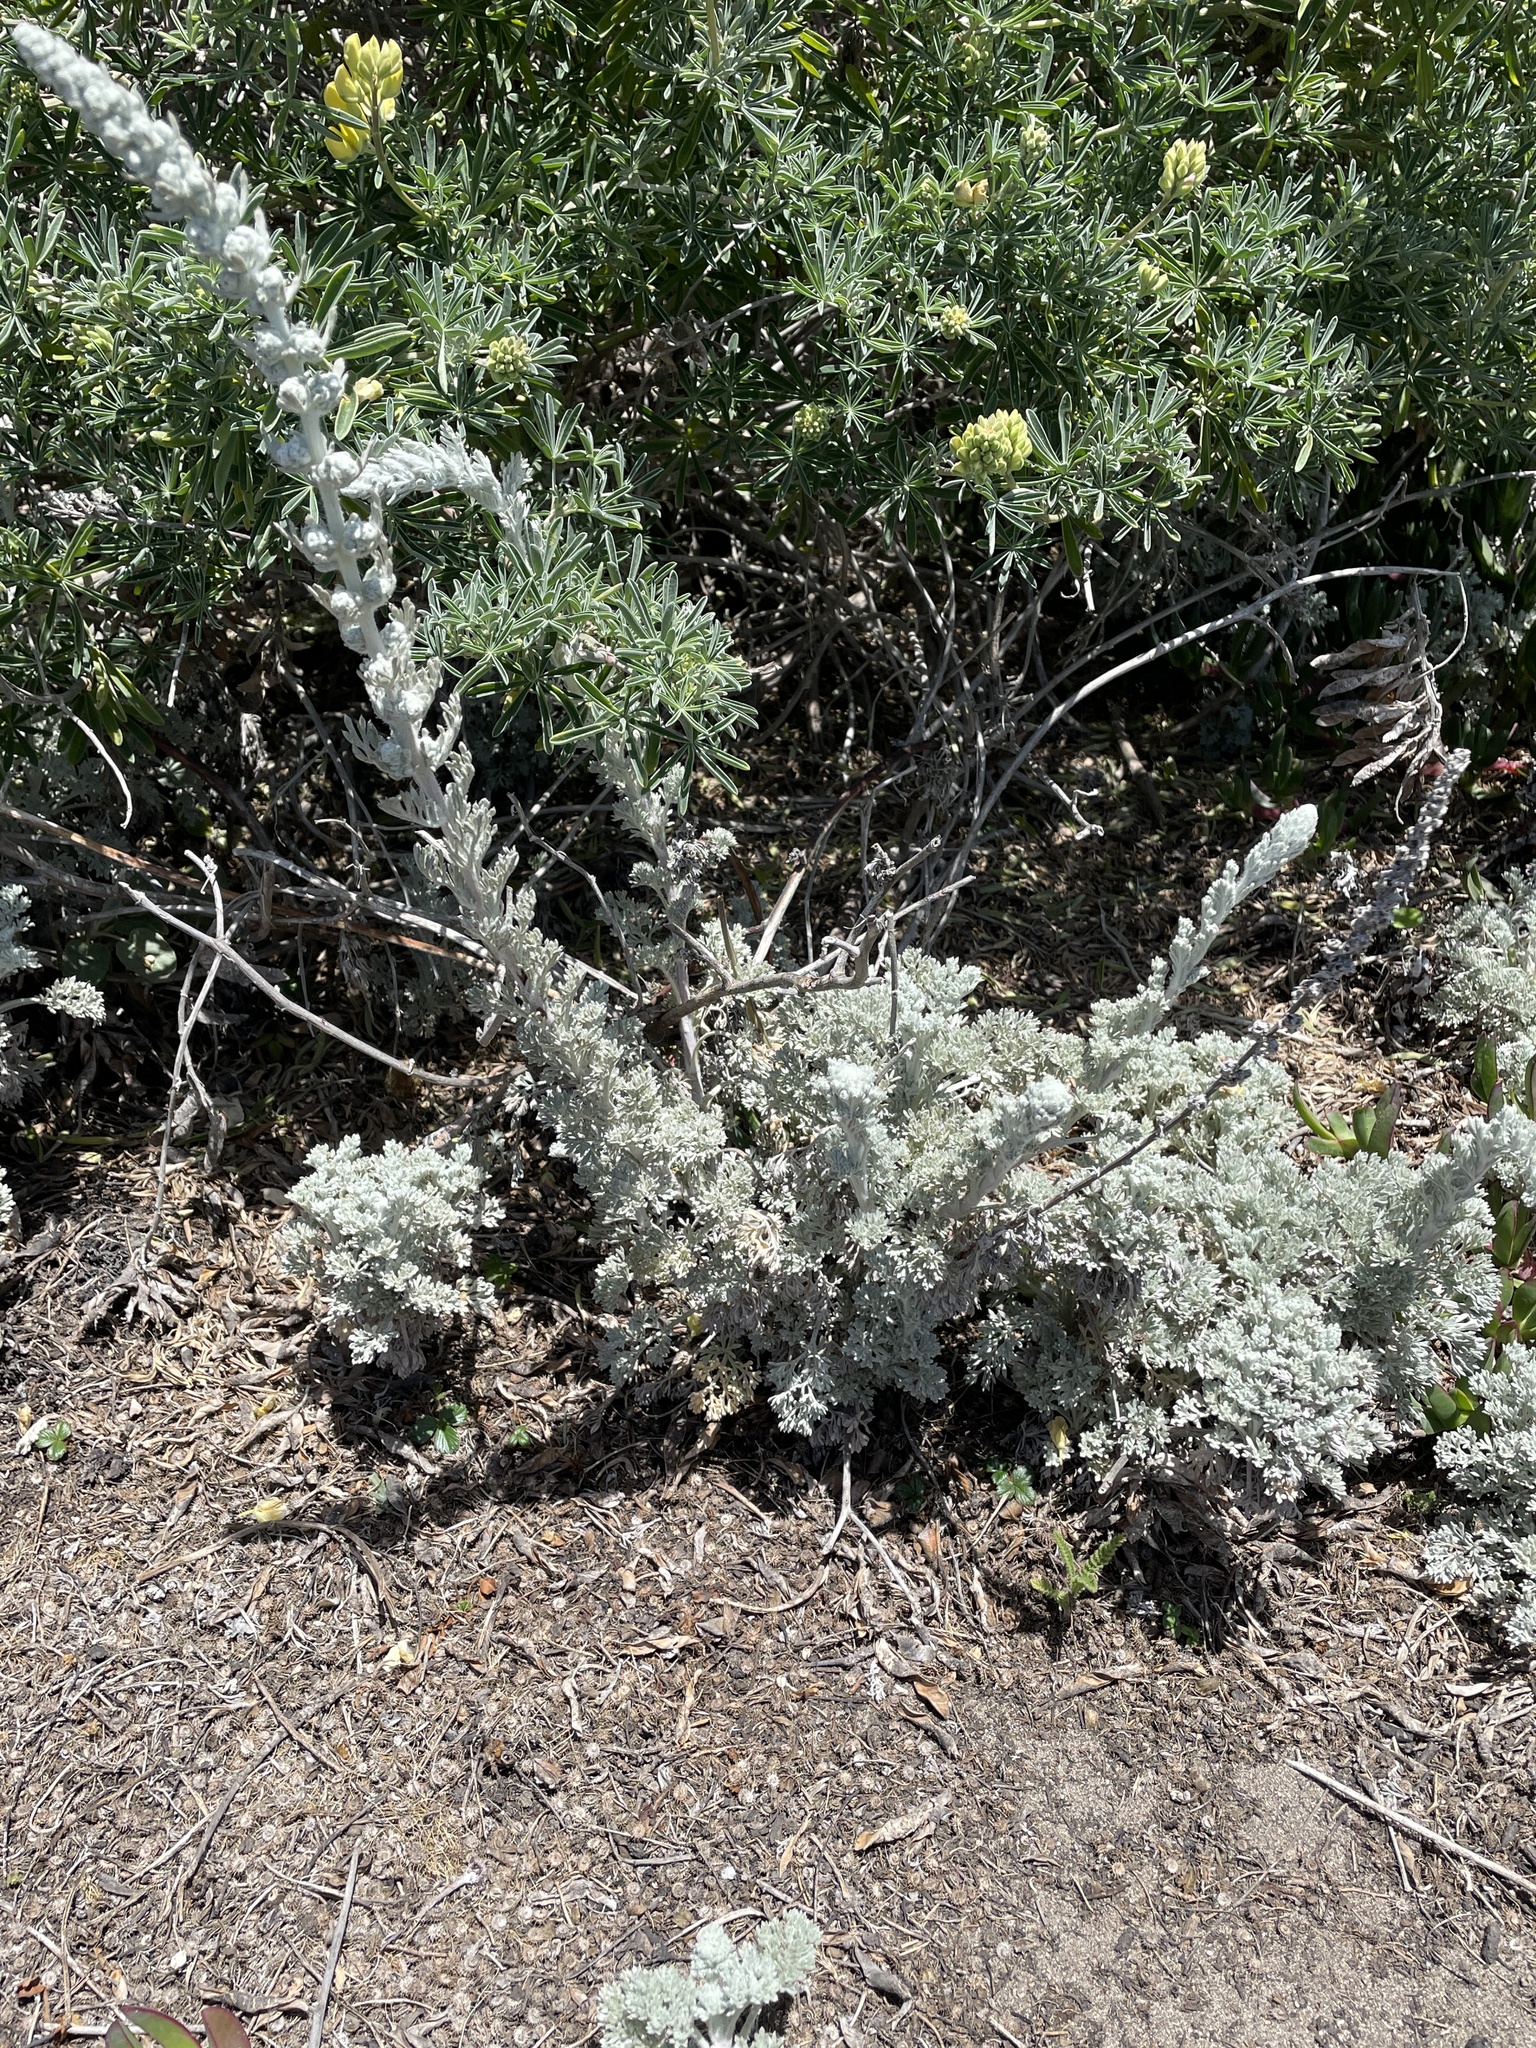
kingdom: Plantae
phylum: Tracheophyta
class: Magnoliopsida
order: Asterales
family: Asteraceae
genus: Artemisia
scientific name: Artemisia pycnocephala
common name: Coastal sagewort
